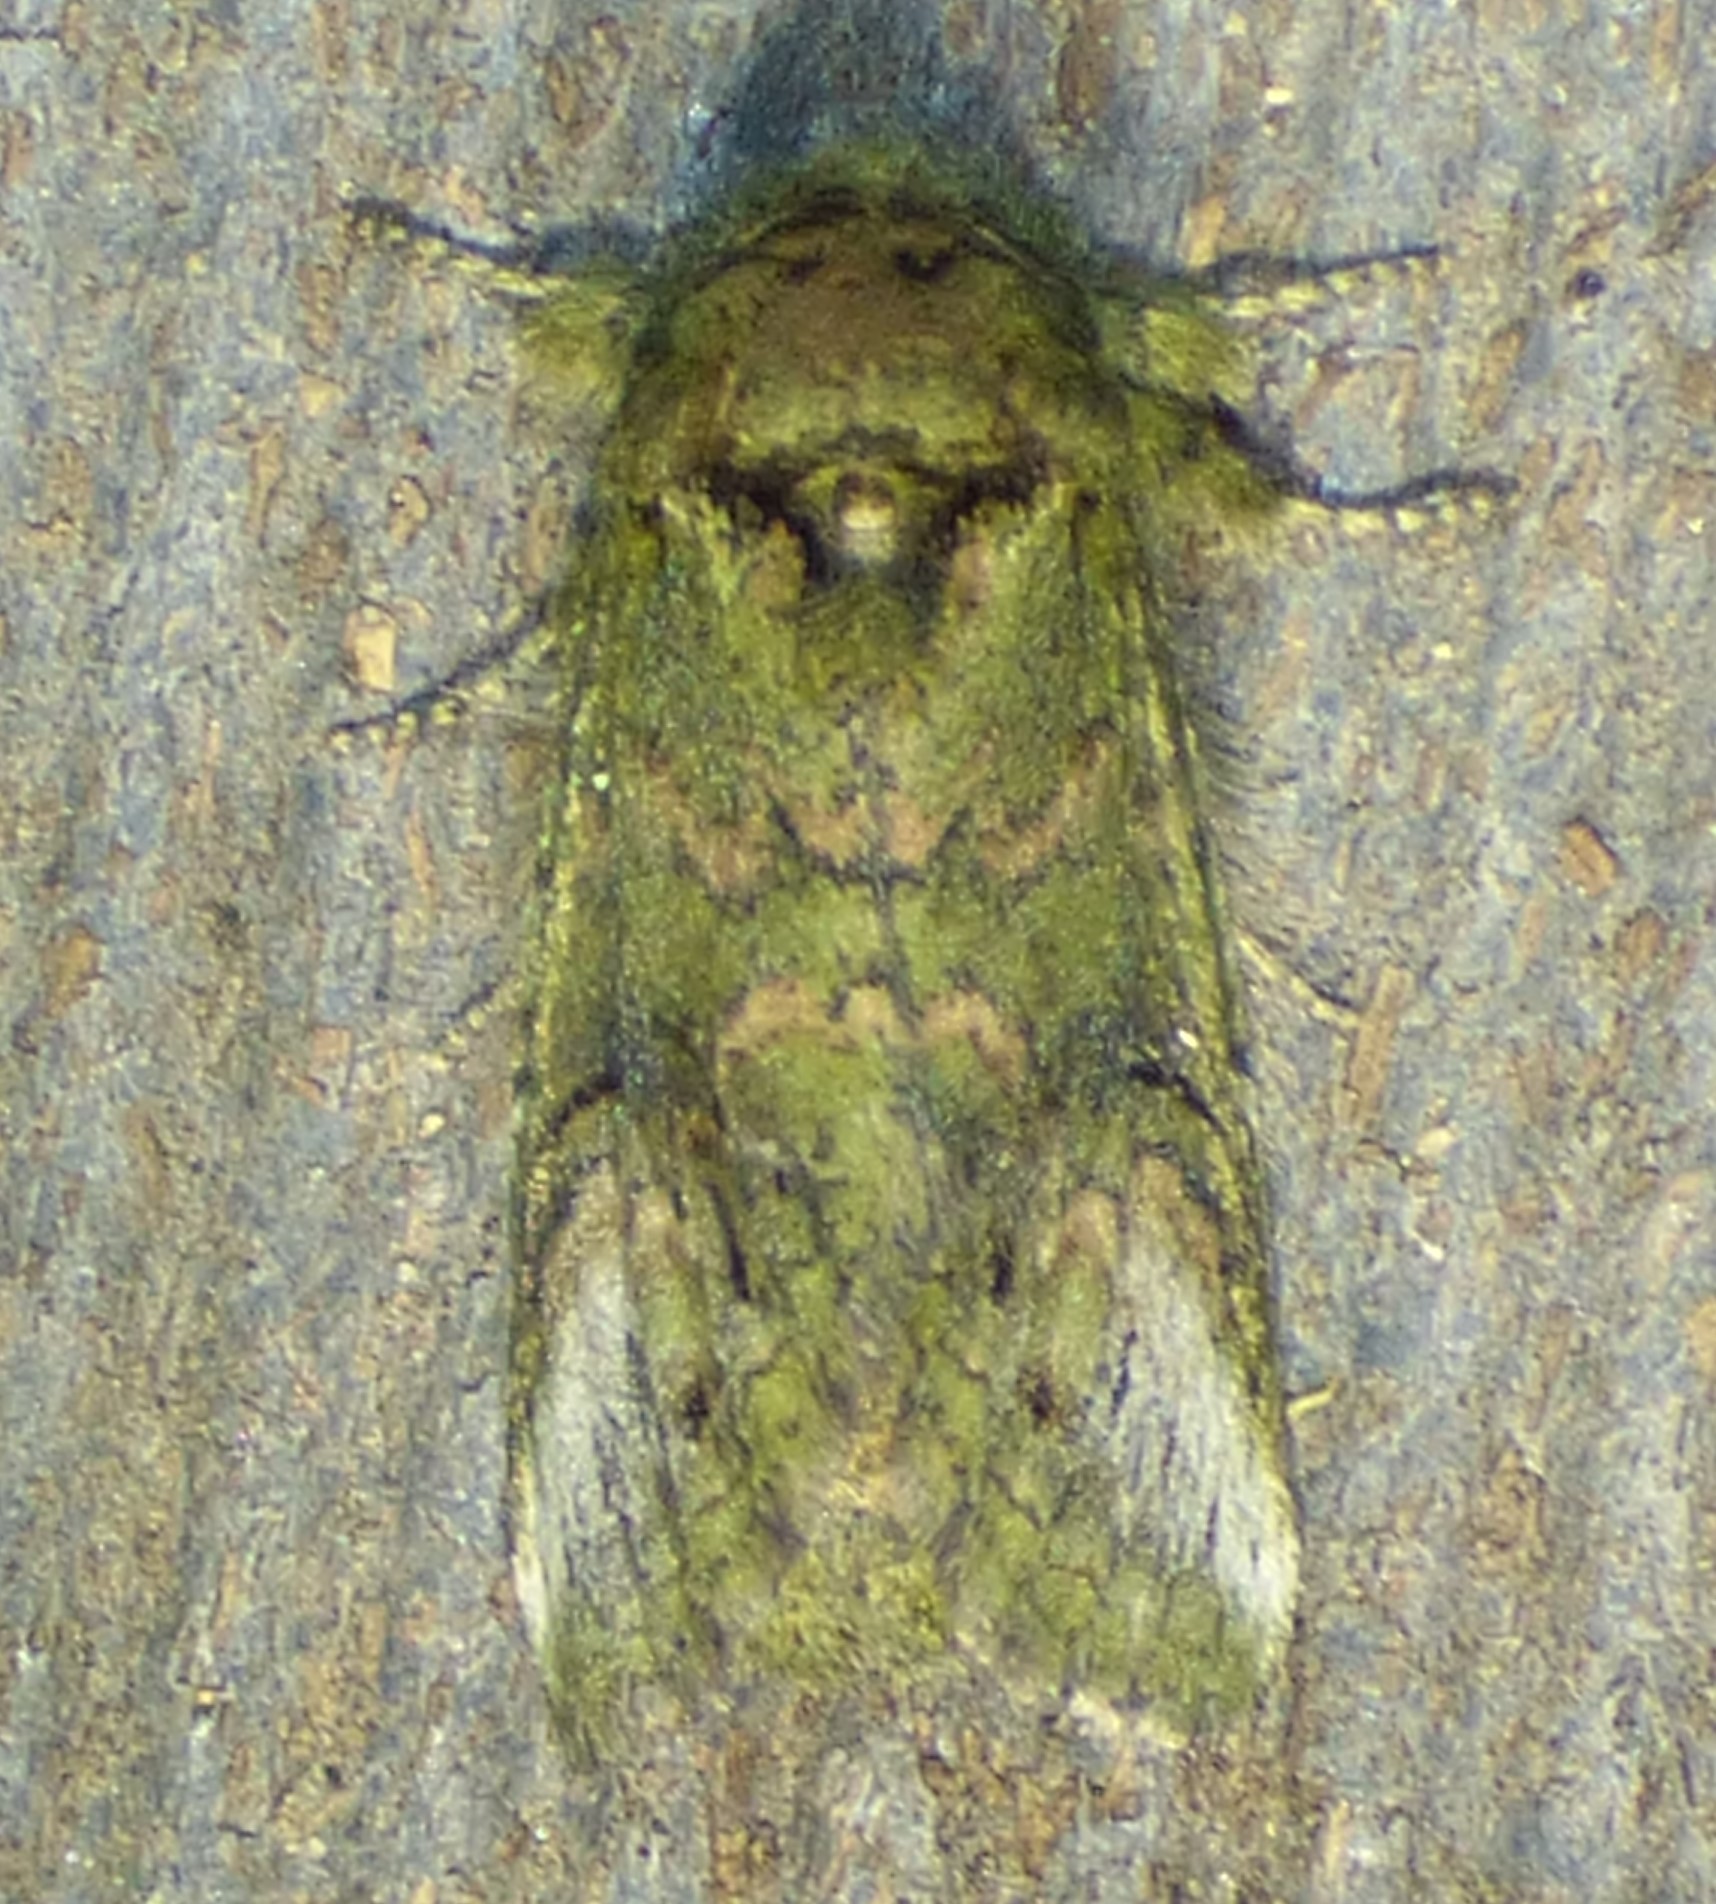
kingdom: Animalia
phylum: Arthropoda
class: Insecta
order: Lepidoptera
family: Notodontidae
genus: Disphragis
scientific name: Disphragis Cecrita biundata
